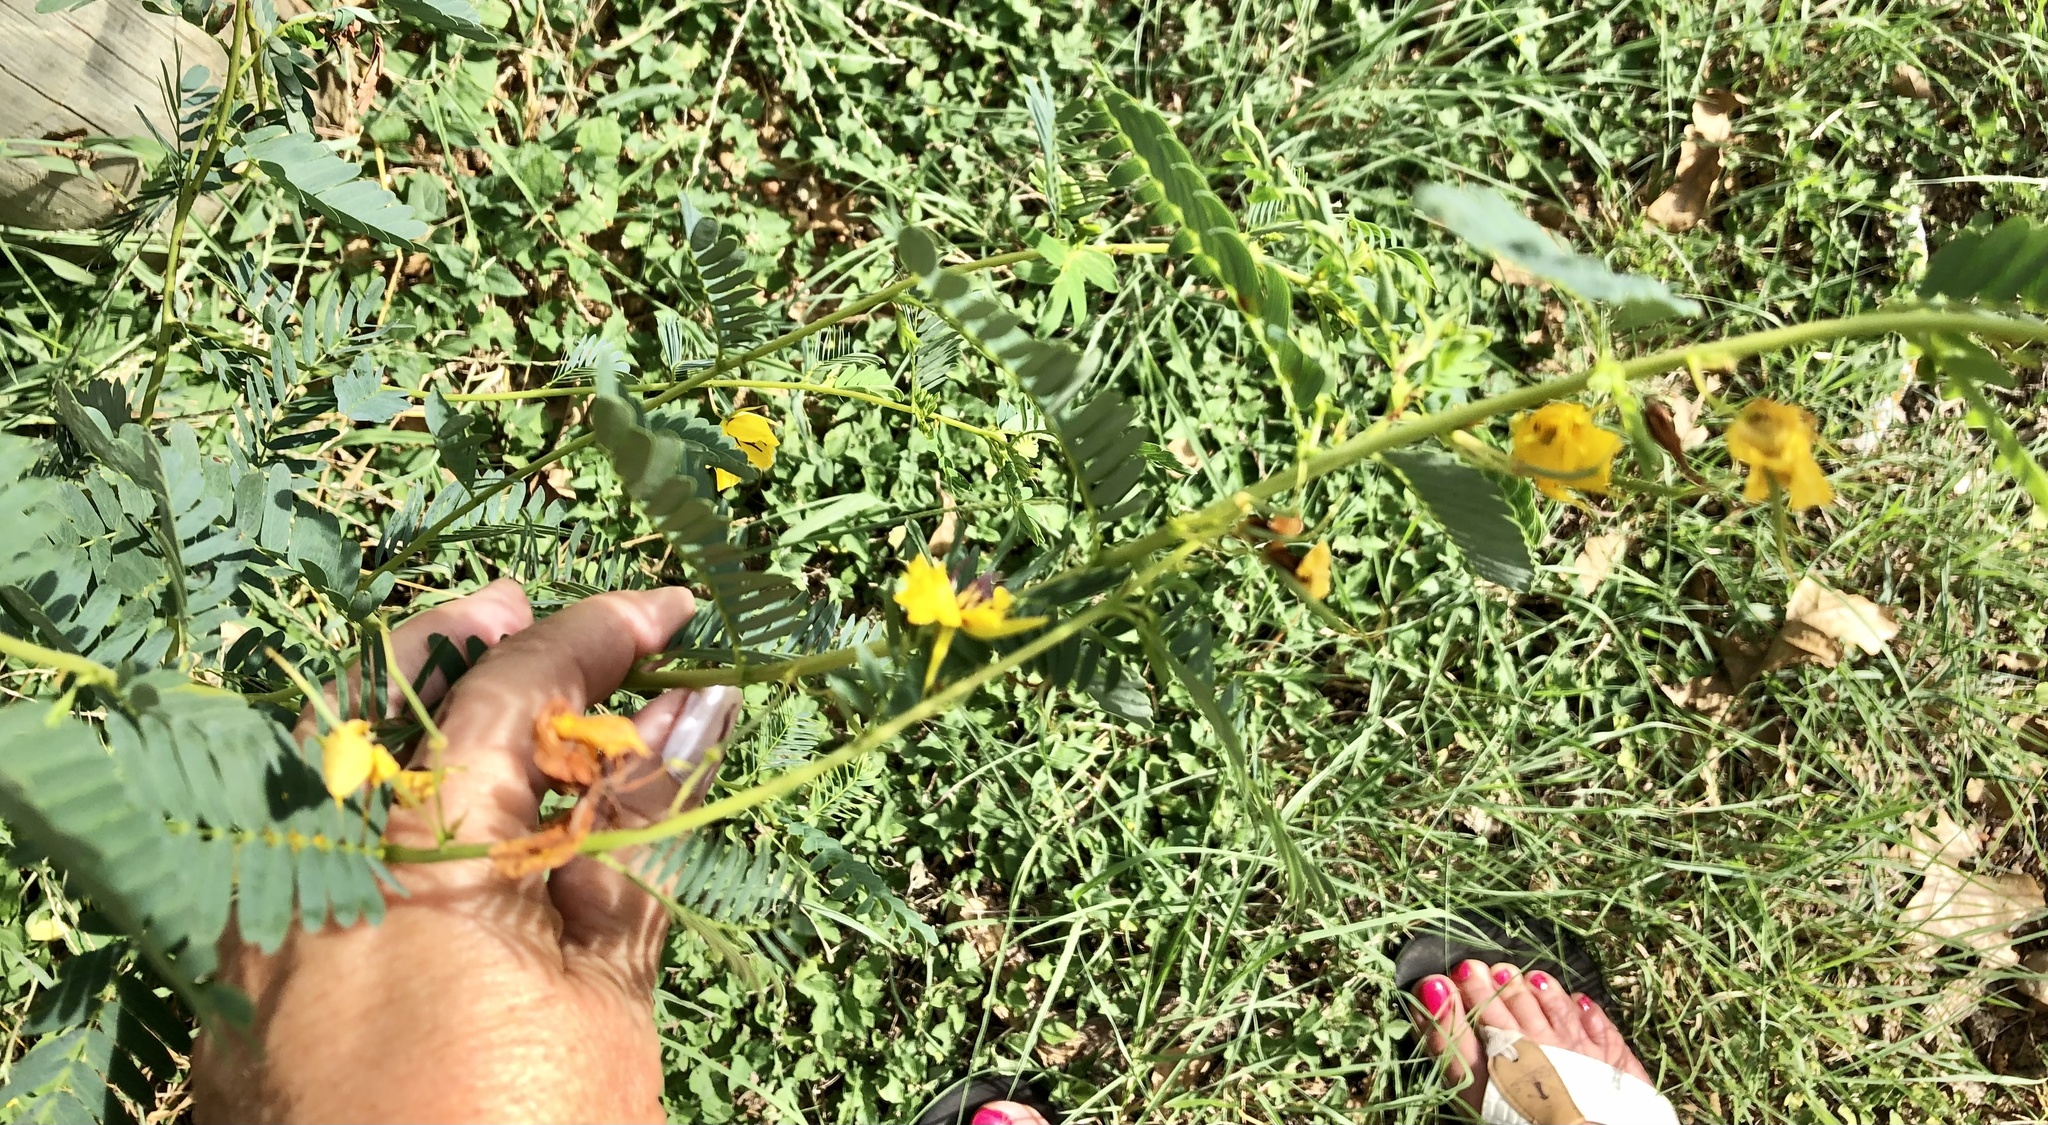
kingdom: Plantae
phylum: Tracheophyta
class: Magnoliopsida
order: Fabales
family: Fabaceae
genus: Chamaecrista
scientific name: Chamaecrista fasciculata
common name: Golden cassia
